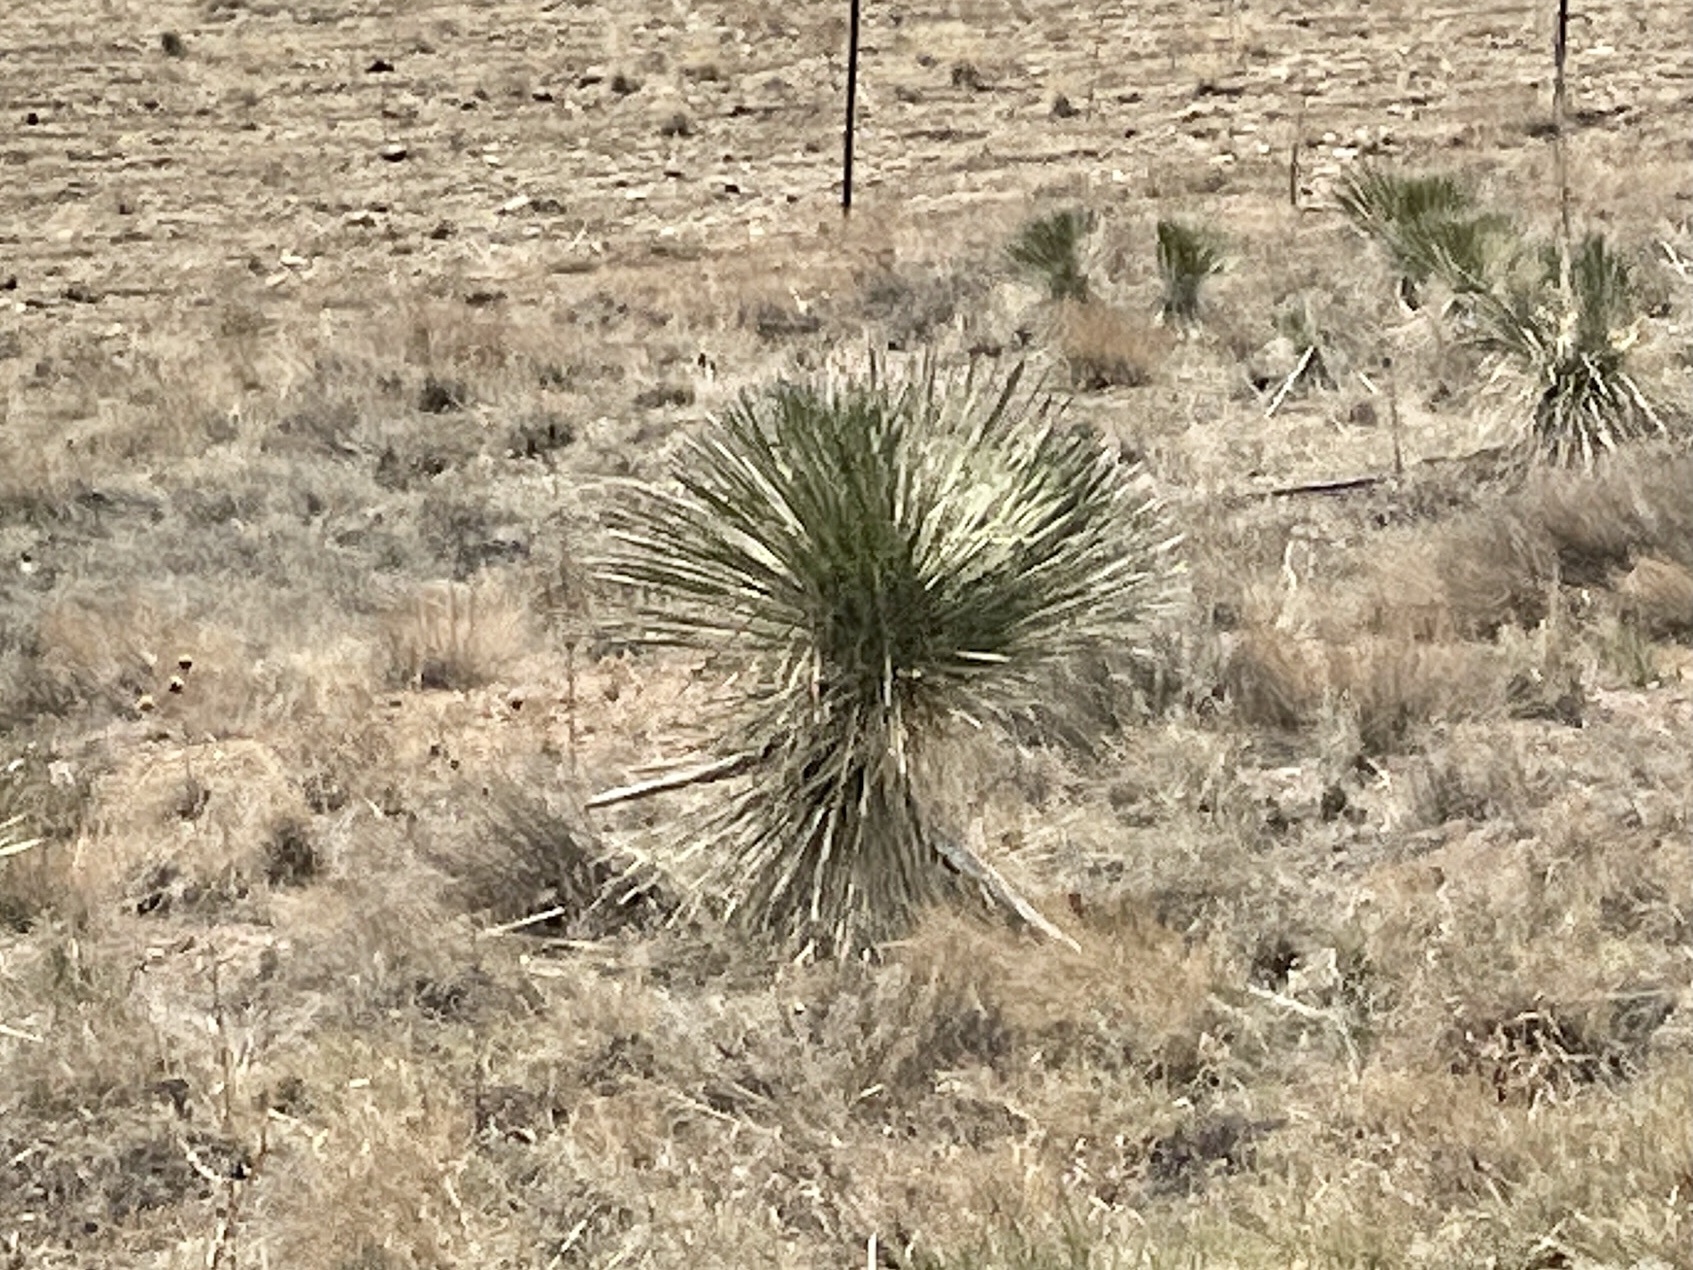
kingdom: Plantae
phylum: Tracheophyta
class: Liliopsida
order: Asparagales
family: Asparagaceae
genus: Yucca
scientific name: Yucca elata
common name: Palmella
